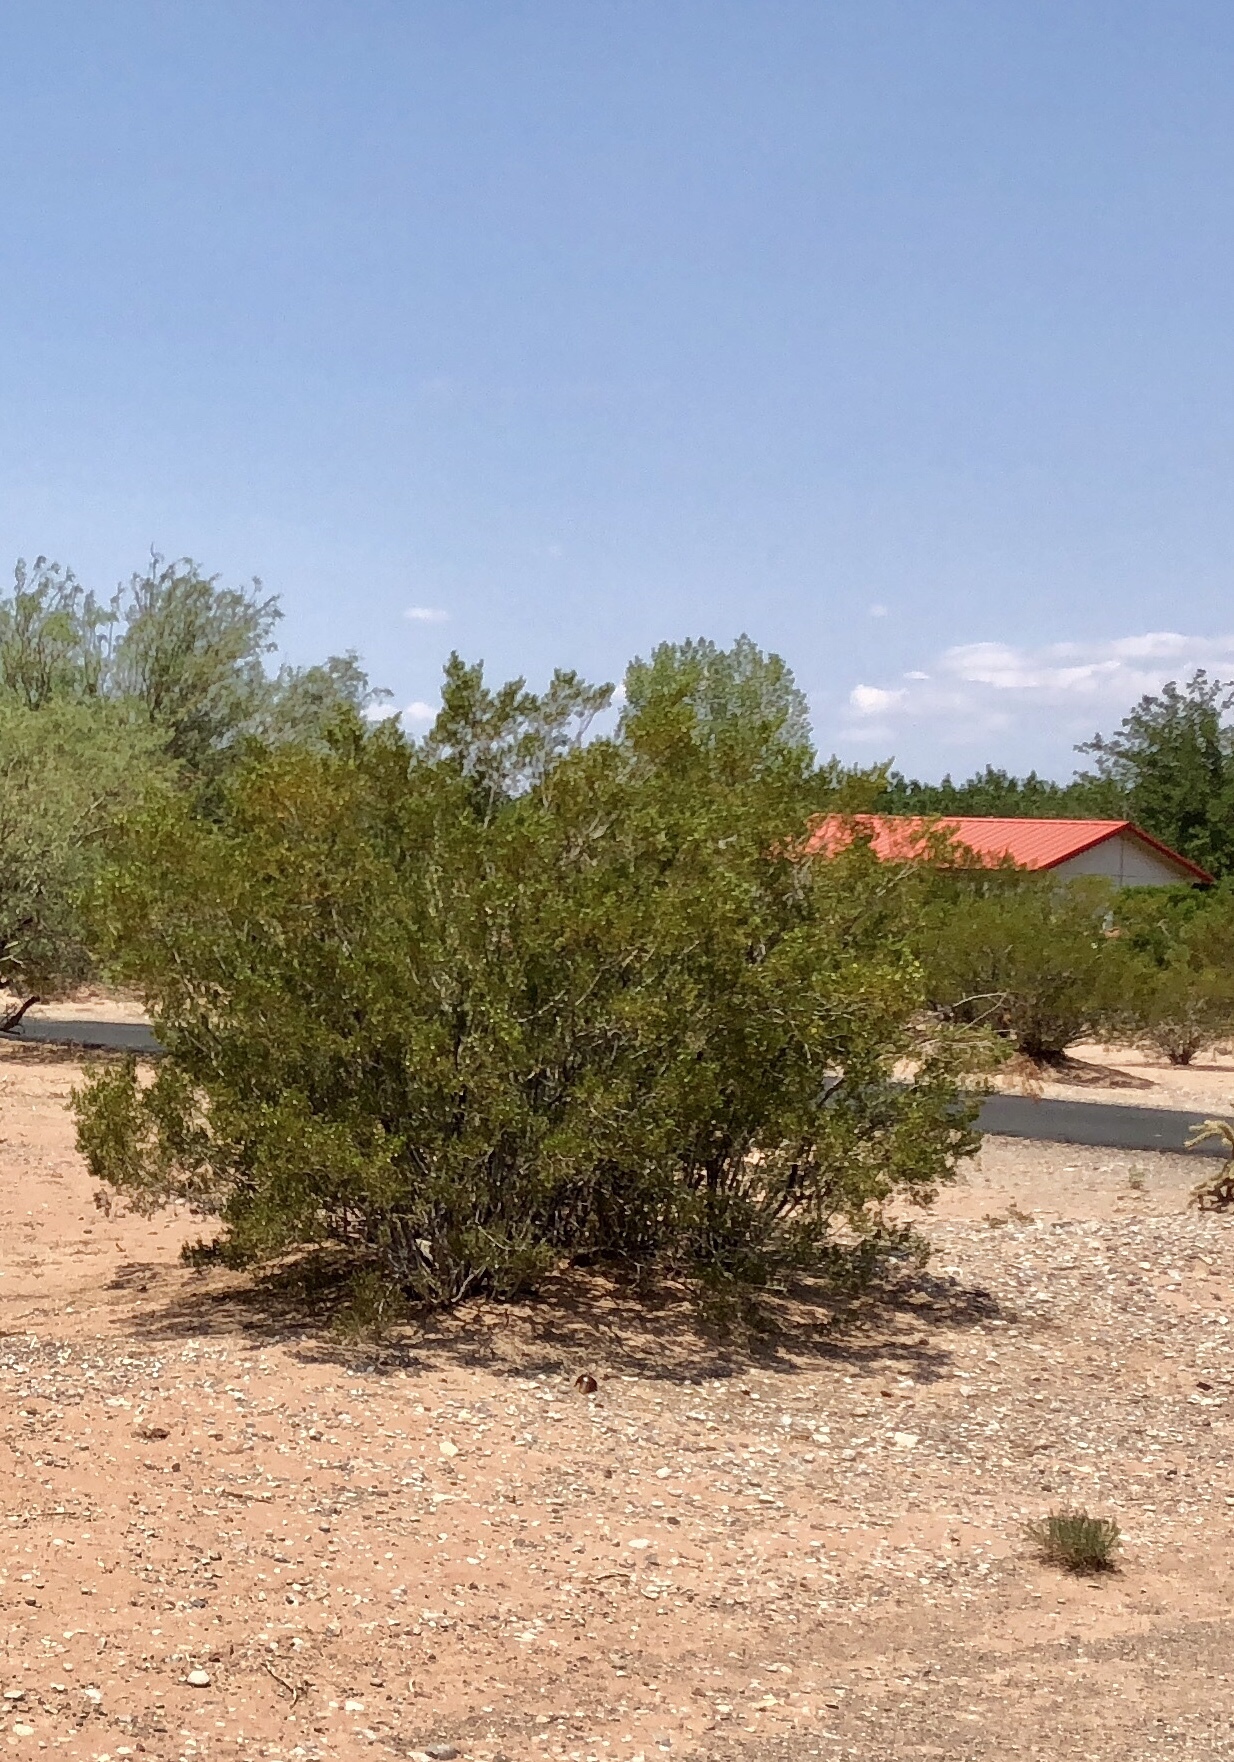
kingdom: Plantae
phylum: Tracheophyta
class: Magnoliopsida
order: Zygophyllales
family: Zygophyllaceae
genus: Larrea
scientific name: Larrea tridentata
